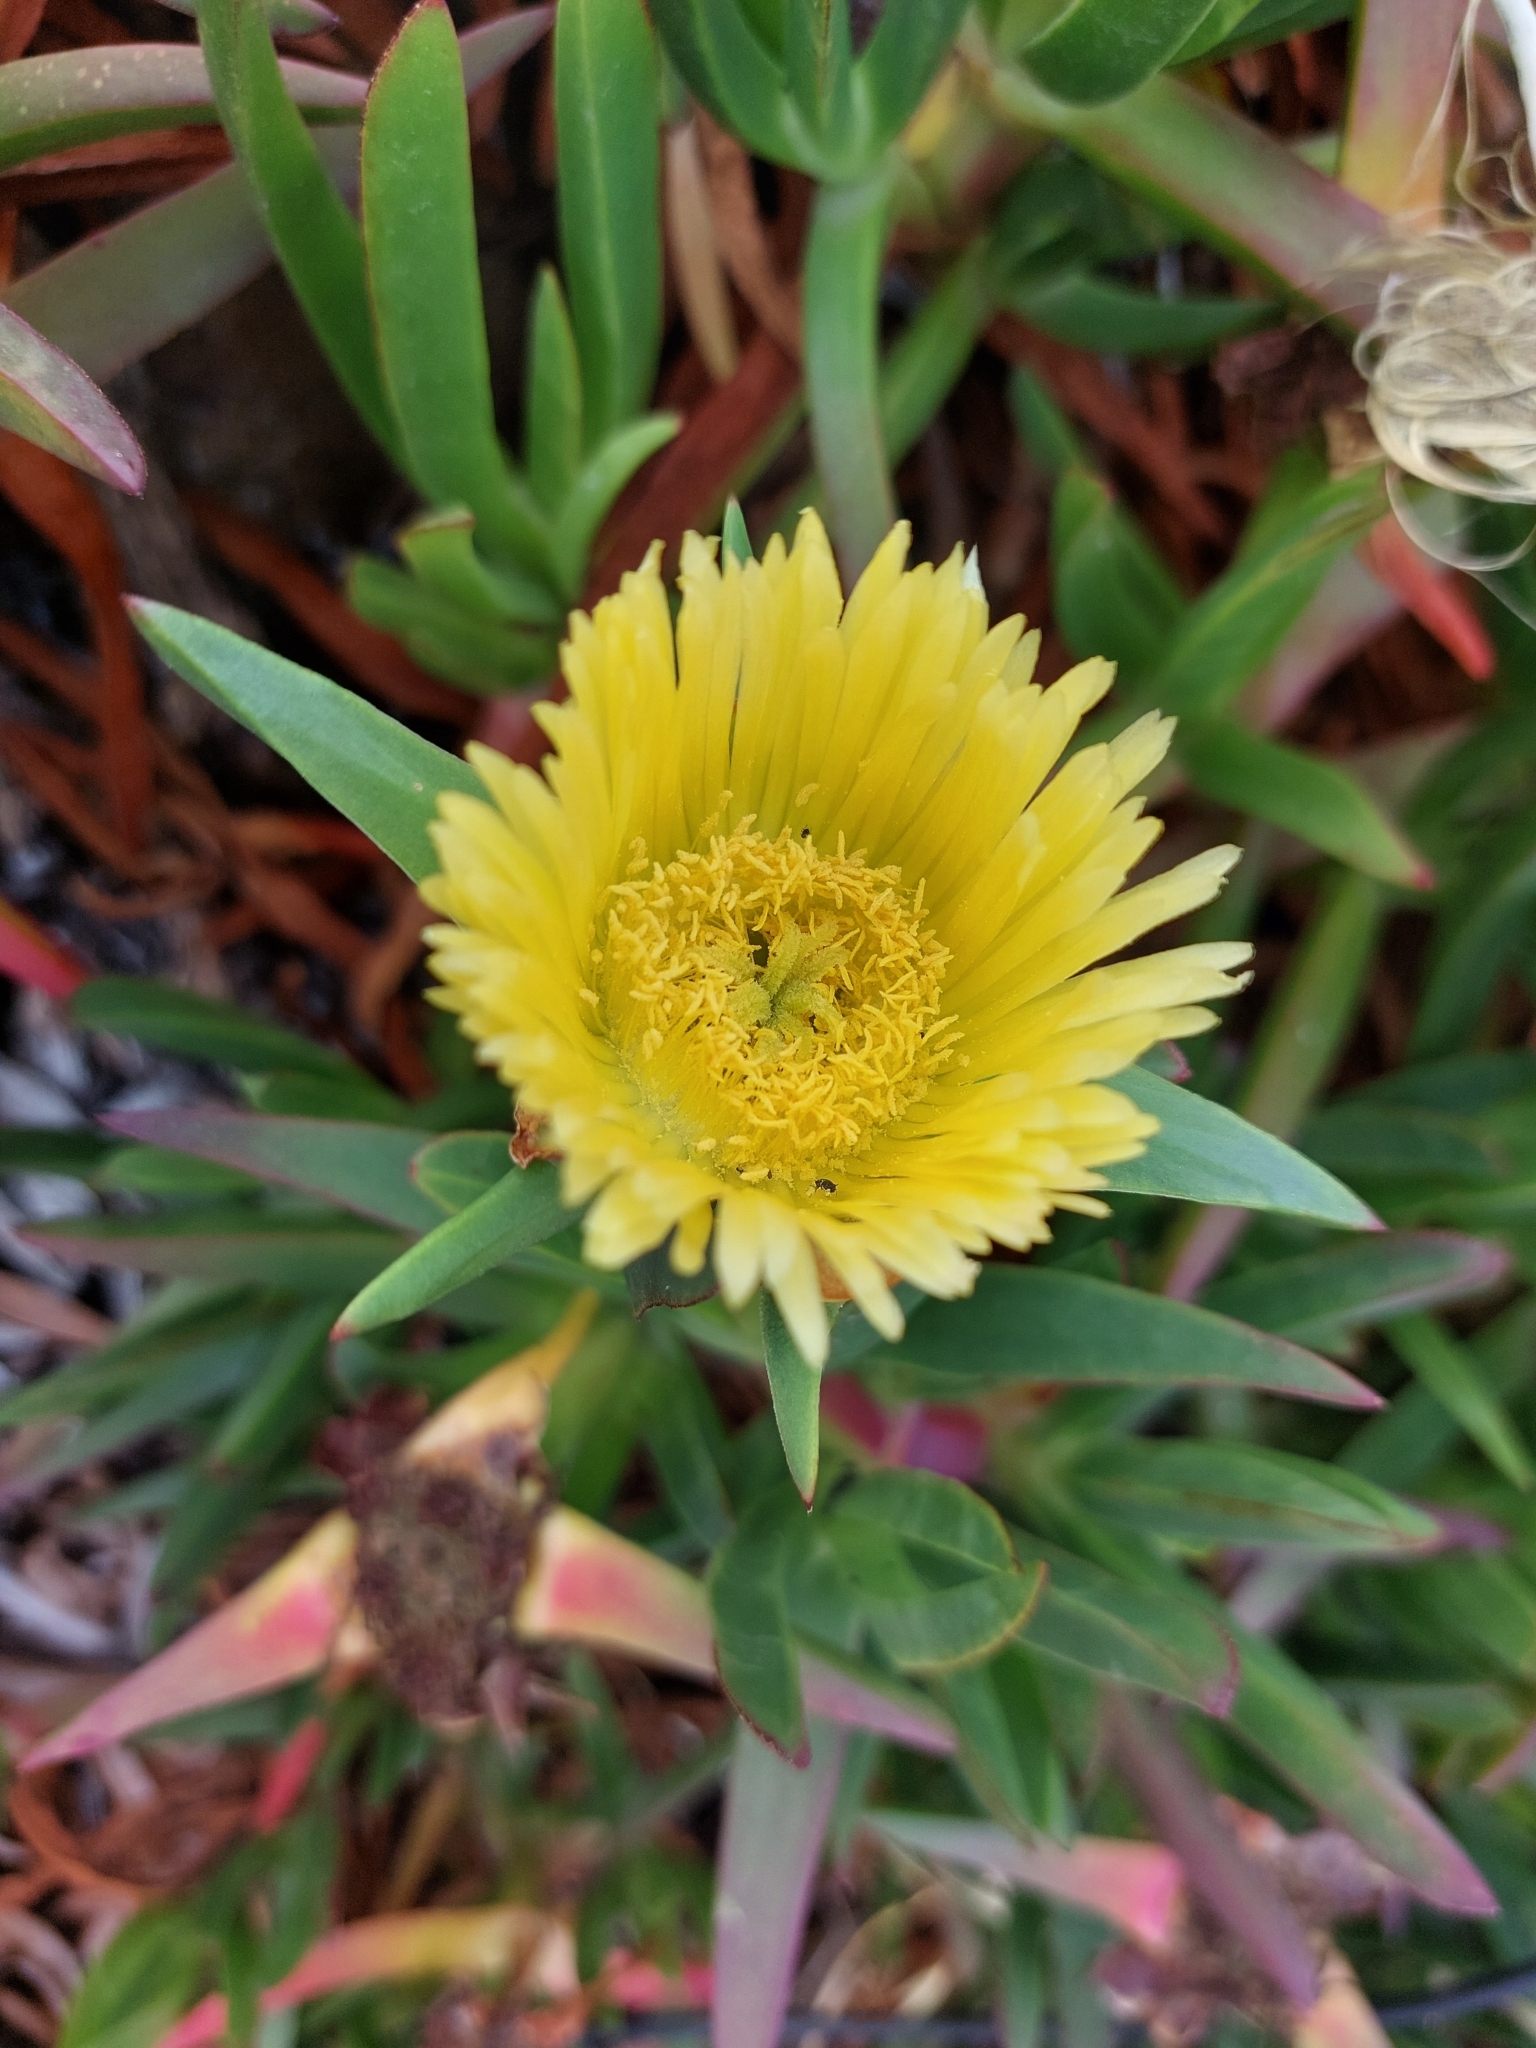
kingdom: Plantae
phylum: Tracheophyta
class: Magnoliopsida
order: Caryophyllales
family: Aizoaceae
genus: Carpobrotus
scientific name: Carpobrotus edulis
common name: Hottentot-fig
